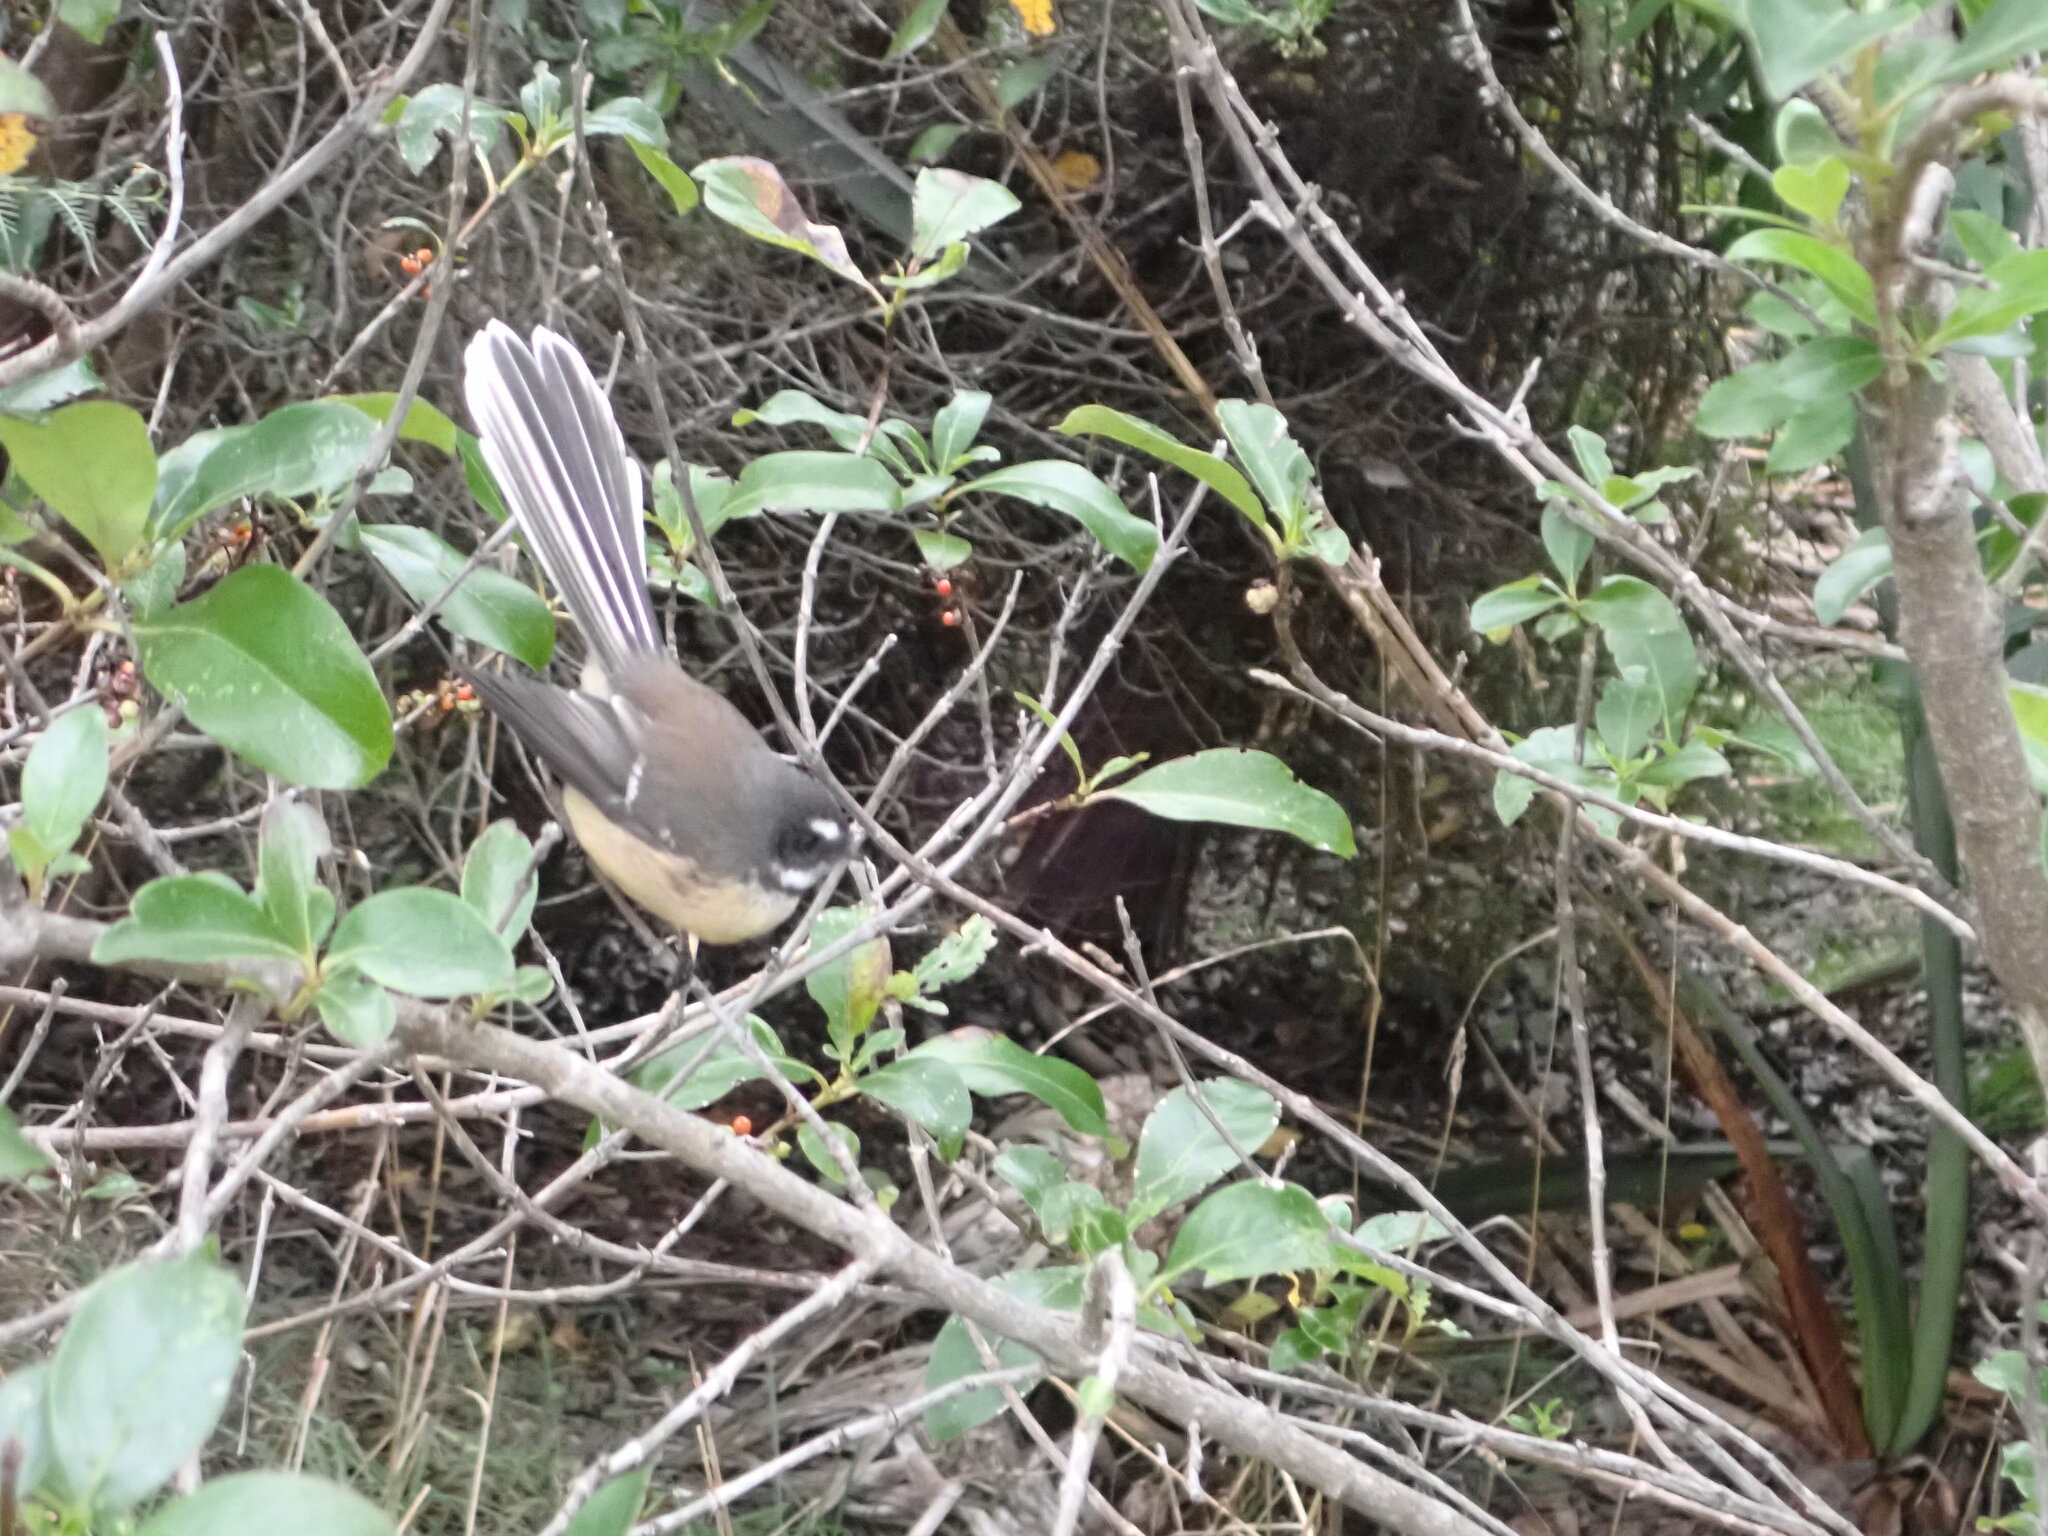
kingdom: Animalia
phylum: Chordata
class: Aves
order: Passeriformes
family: Rhipiduridae
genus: Rhipidura
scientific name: Rhipidura fuliginosa
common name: New zealand fantail
